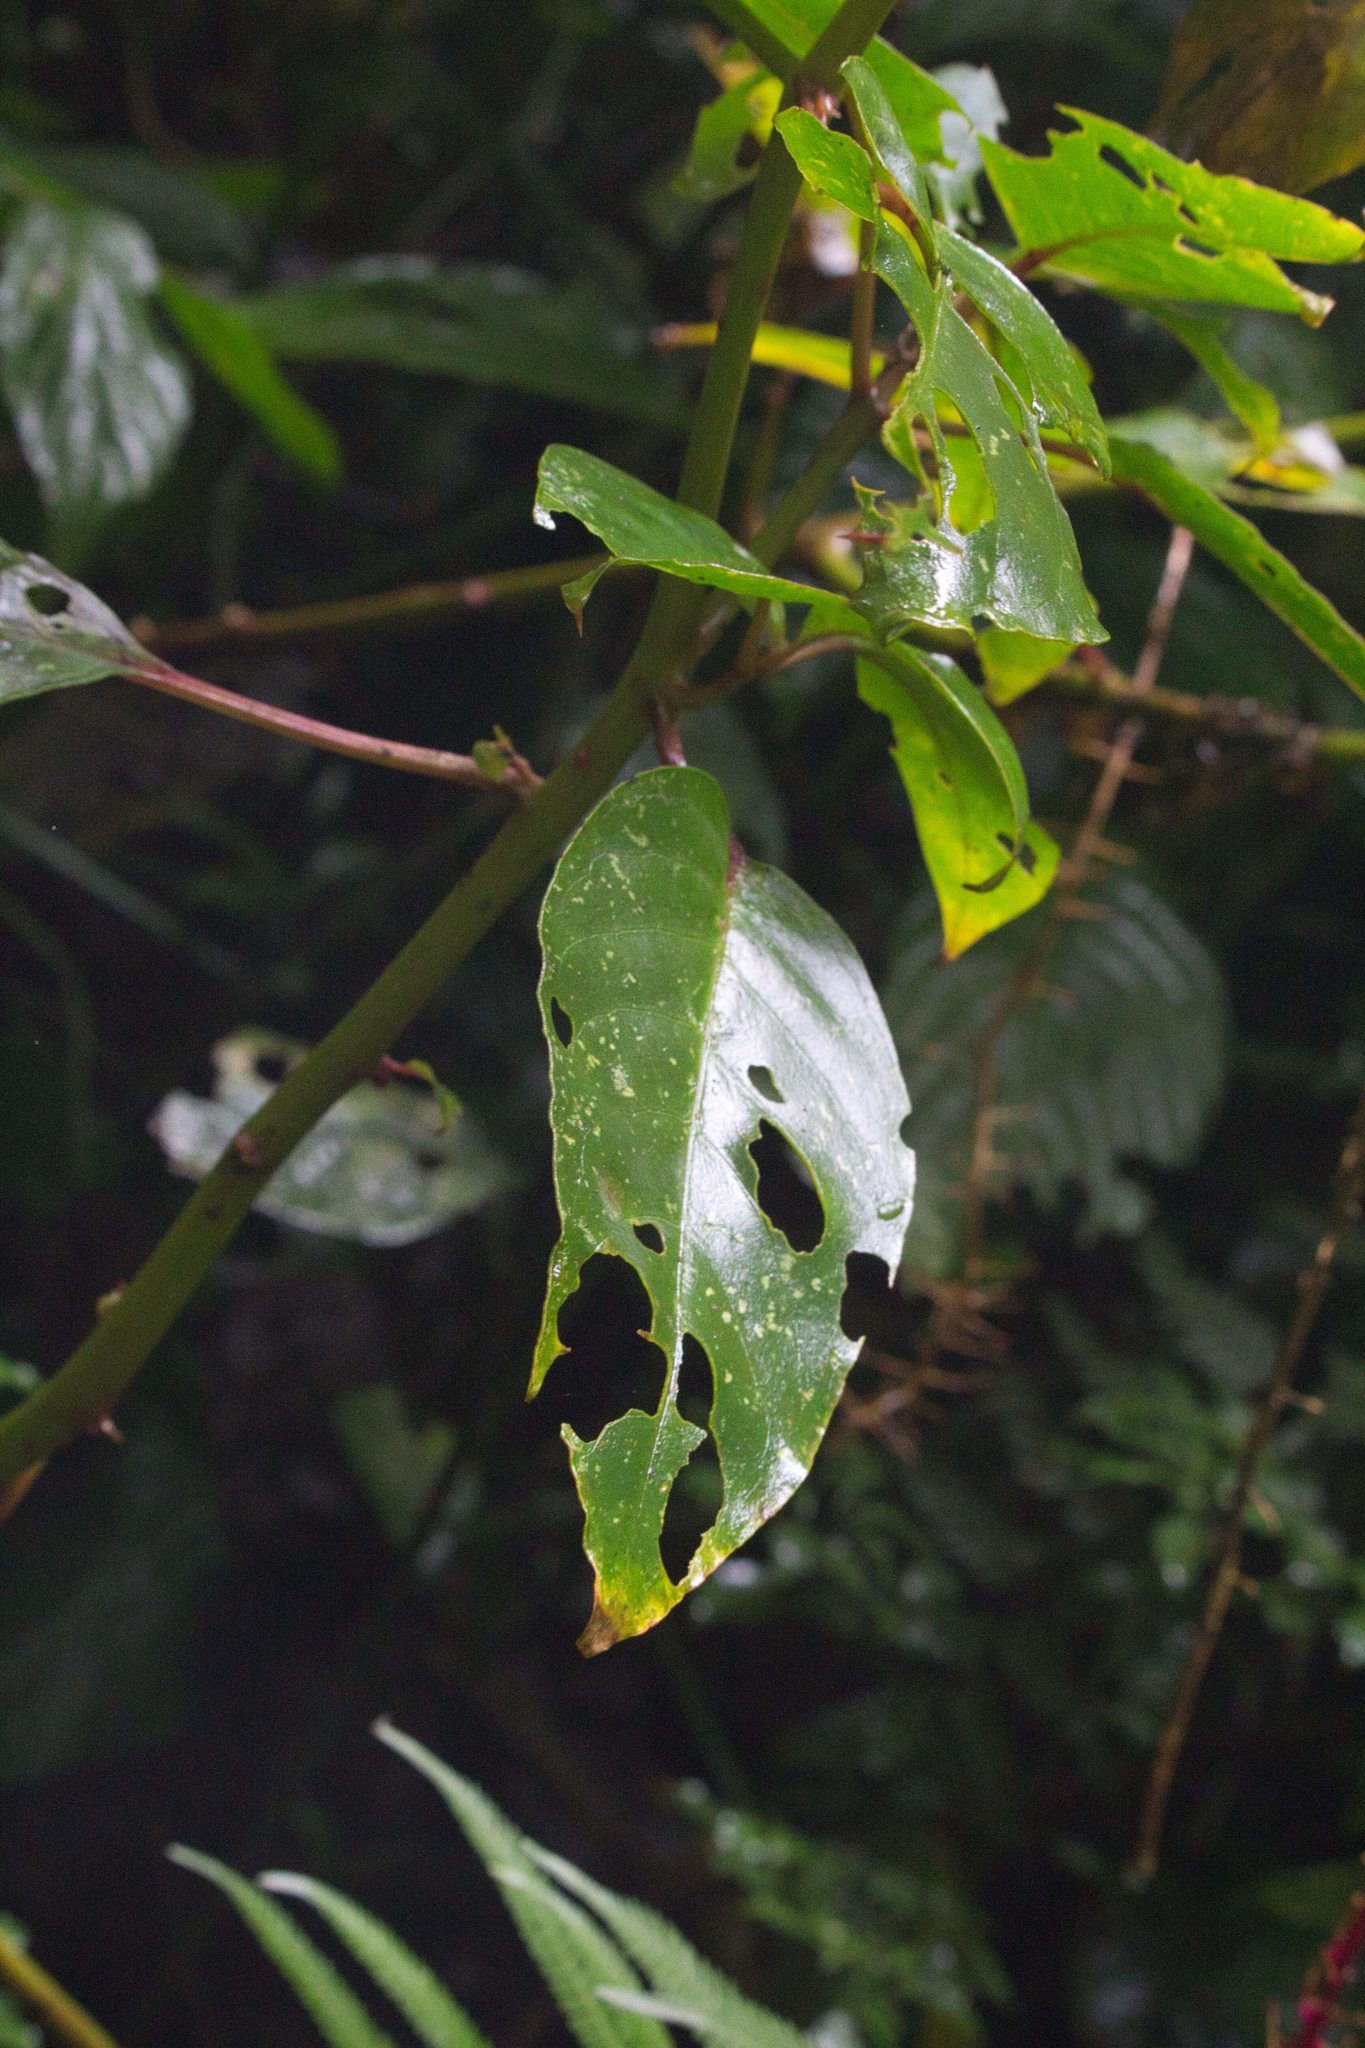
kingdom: Plantae
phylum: Tracheophyta
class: Magnoliopsida
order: Caryophyllales
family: Phytolaccaceae
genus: Phytolacca
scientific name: Phytolacca rivinoides
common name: Venezuelan pokeweed
